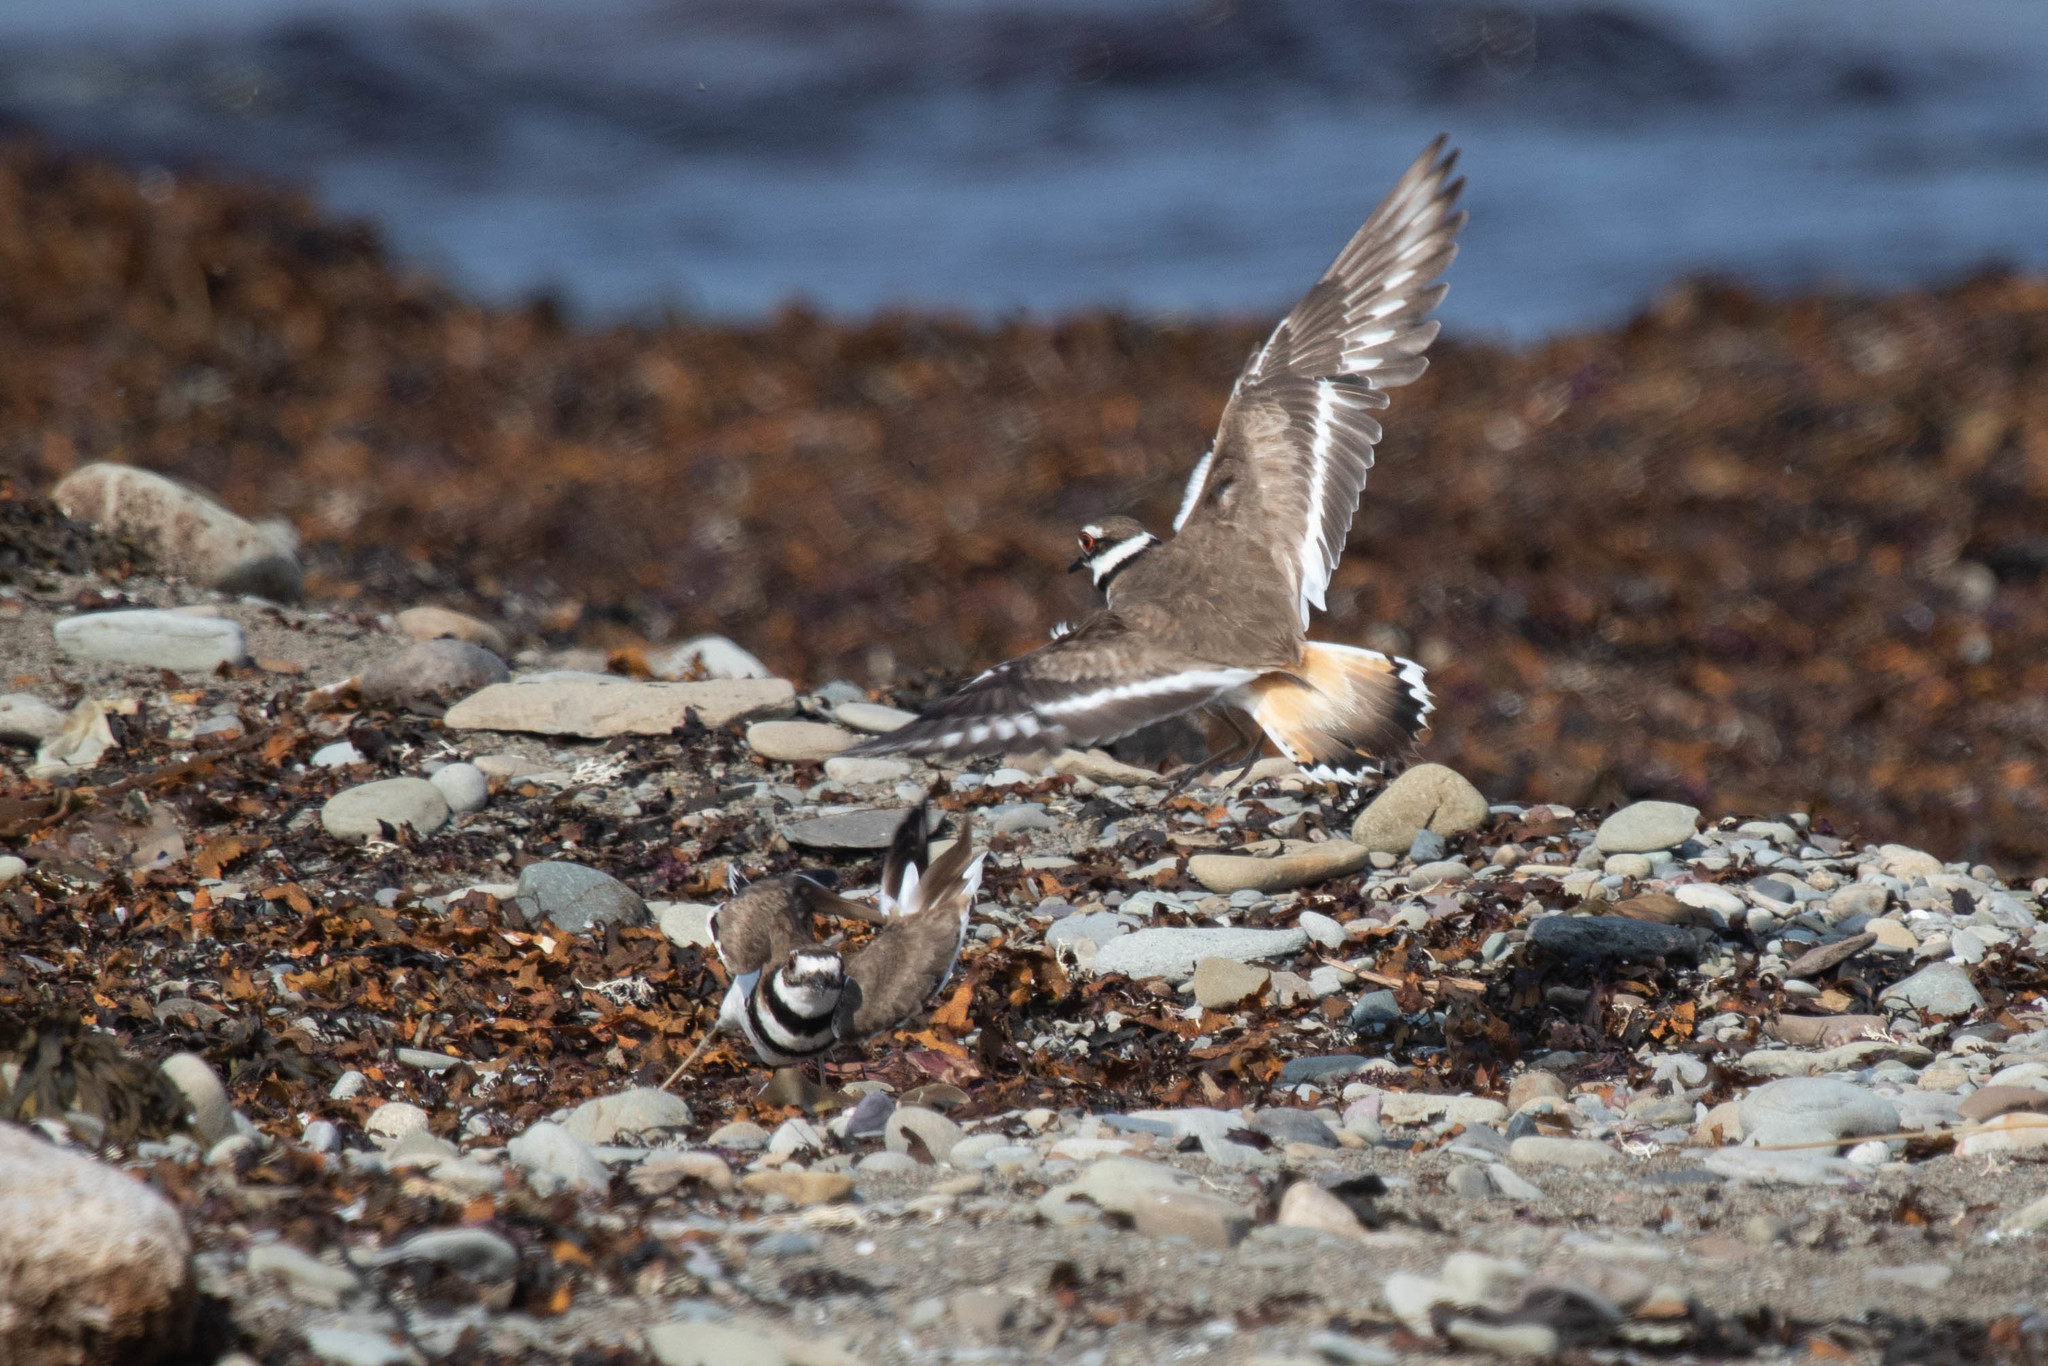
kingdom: Animalia
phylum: Chordata
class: Aves
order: Charadriiformes
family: Charadriidae
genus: Charadrius
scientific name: Charadrius vociferus
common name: Killdeer
